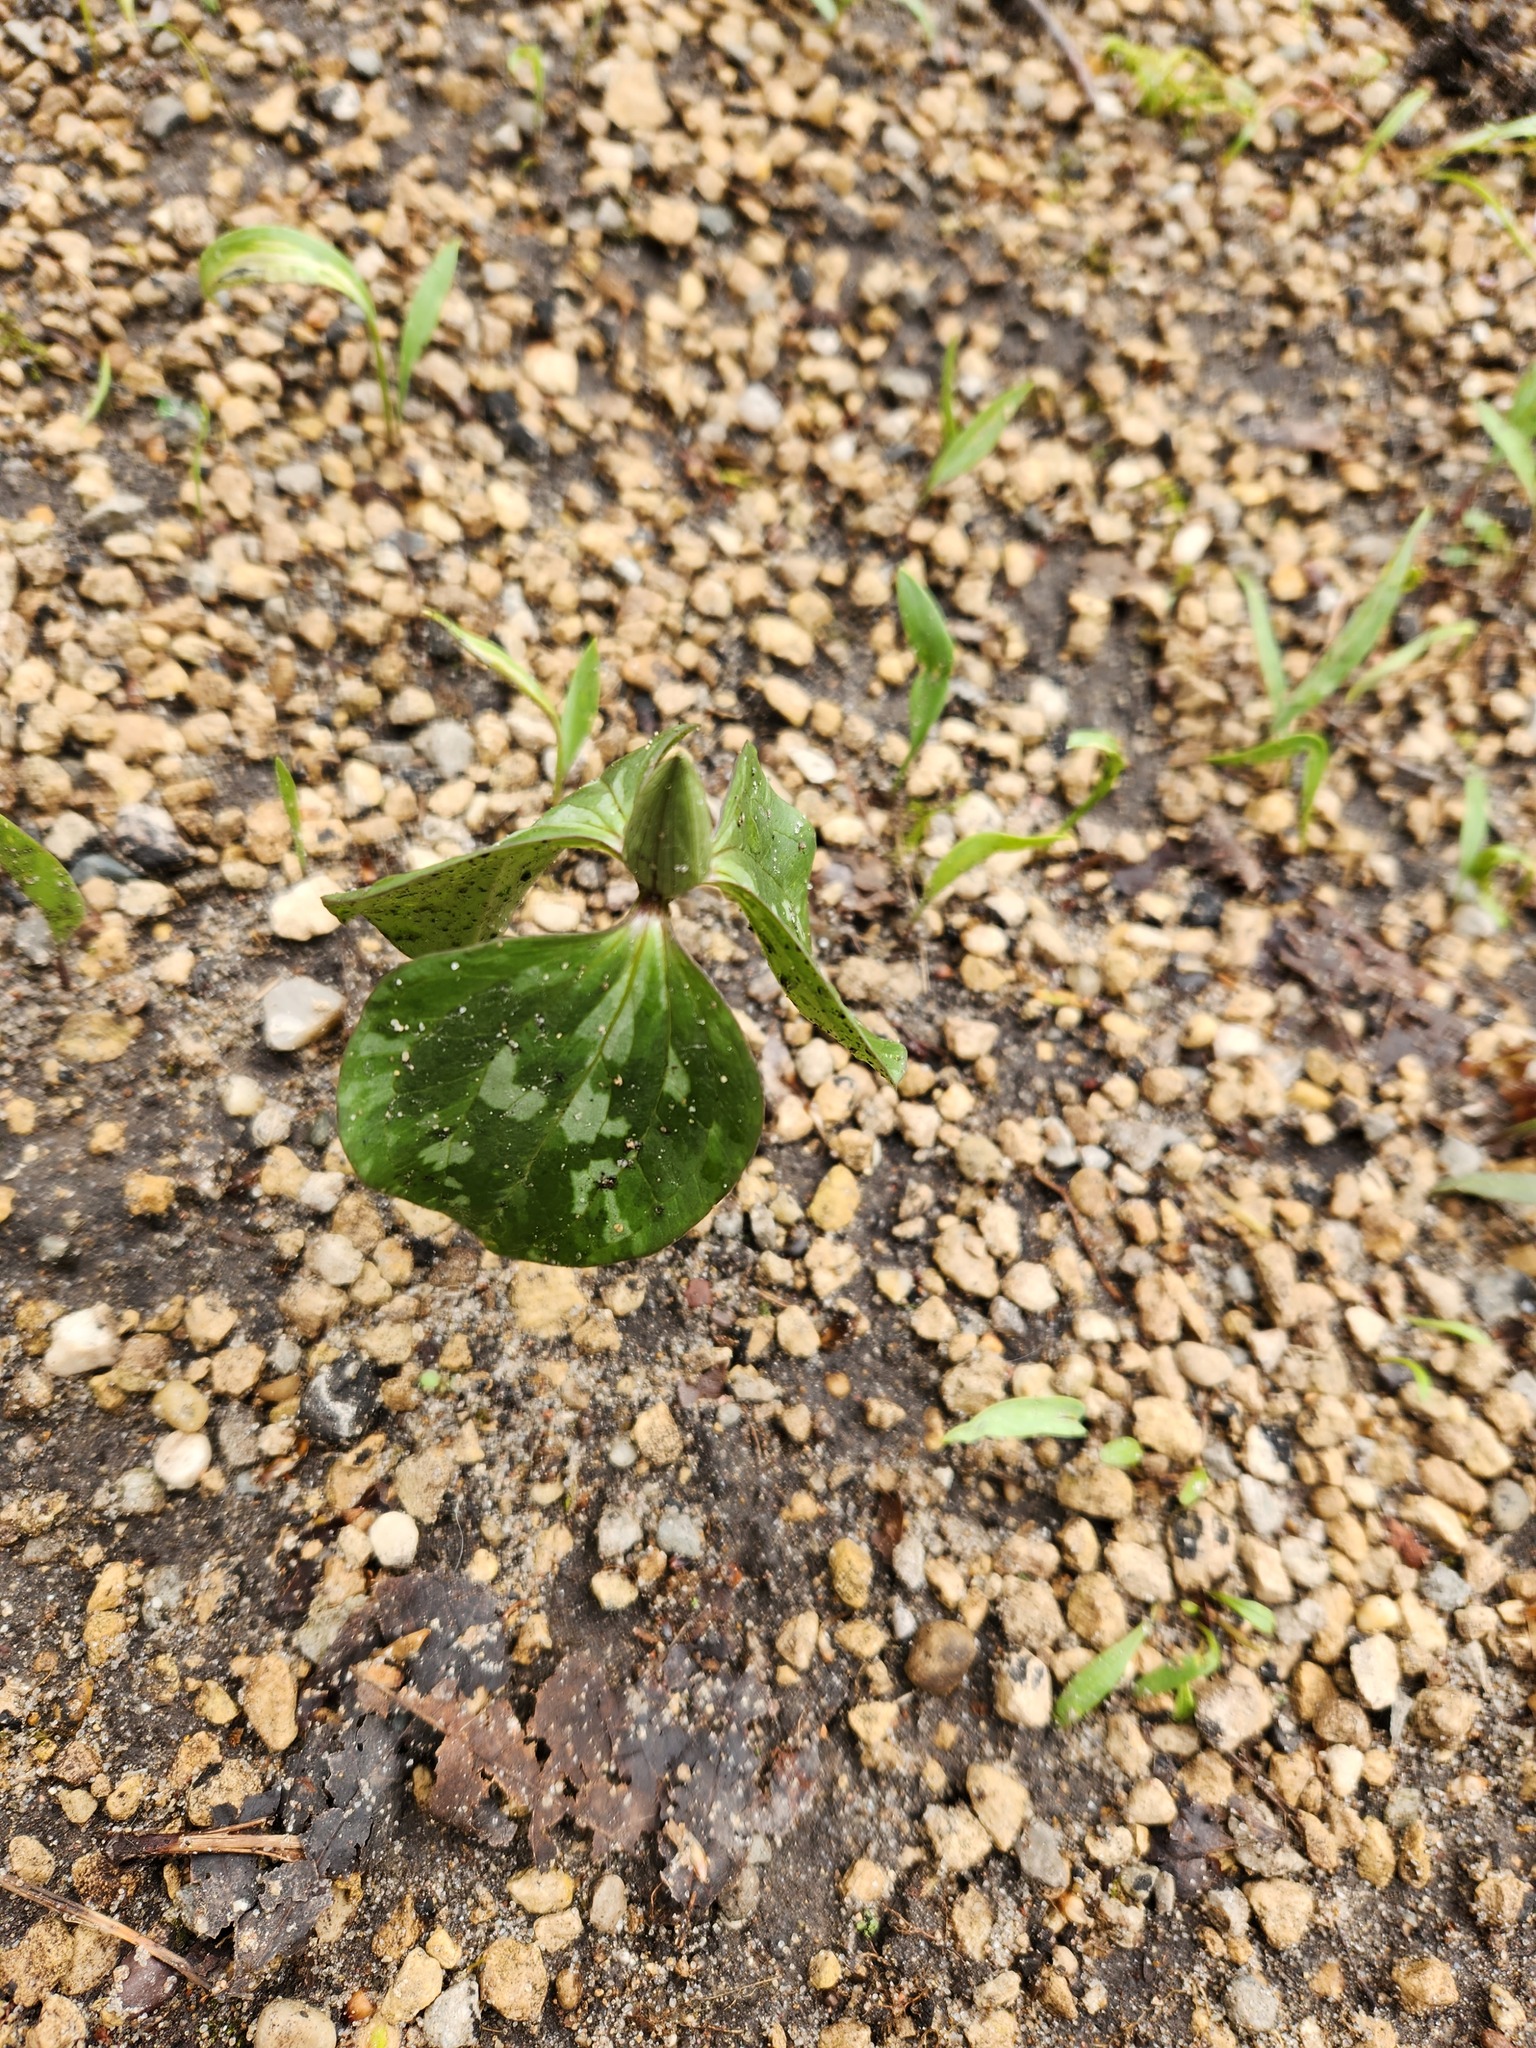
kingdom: Plantae
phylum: Tracheophyta
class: Liliopsida
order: Liliales
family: Melanthiaceae
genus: Trillium
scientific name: Trillium recurvatum
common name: Bloody butcher
